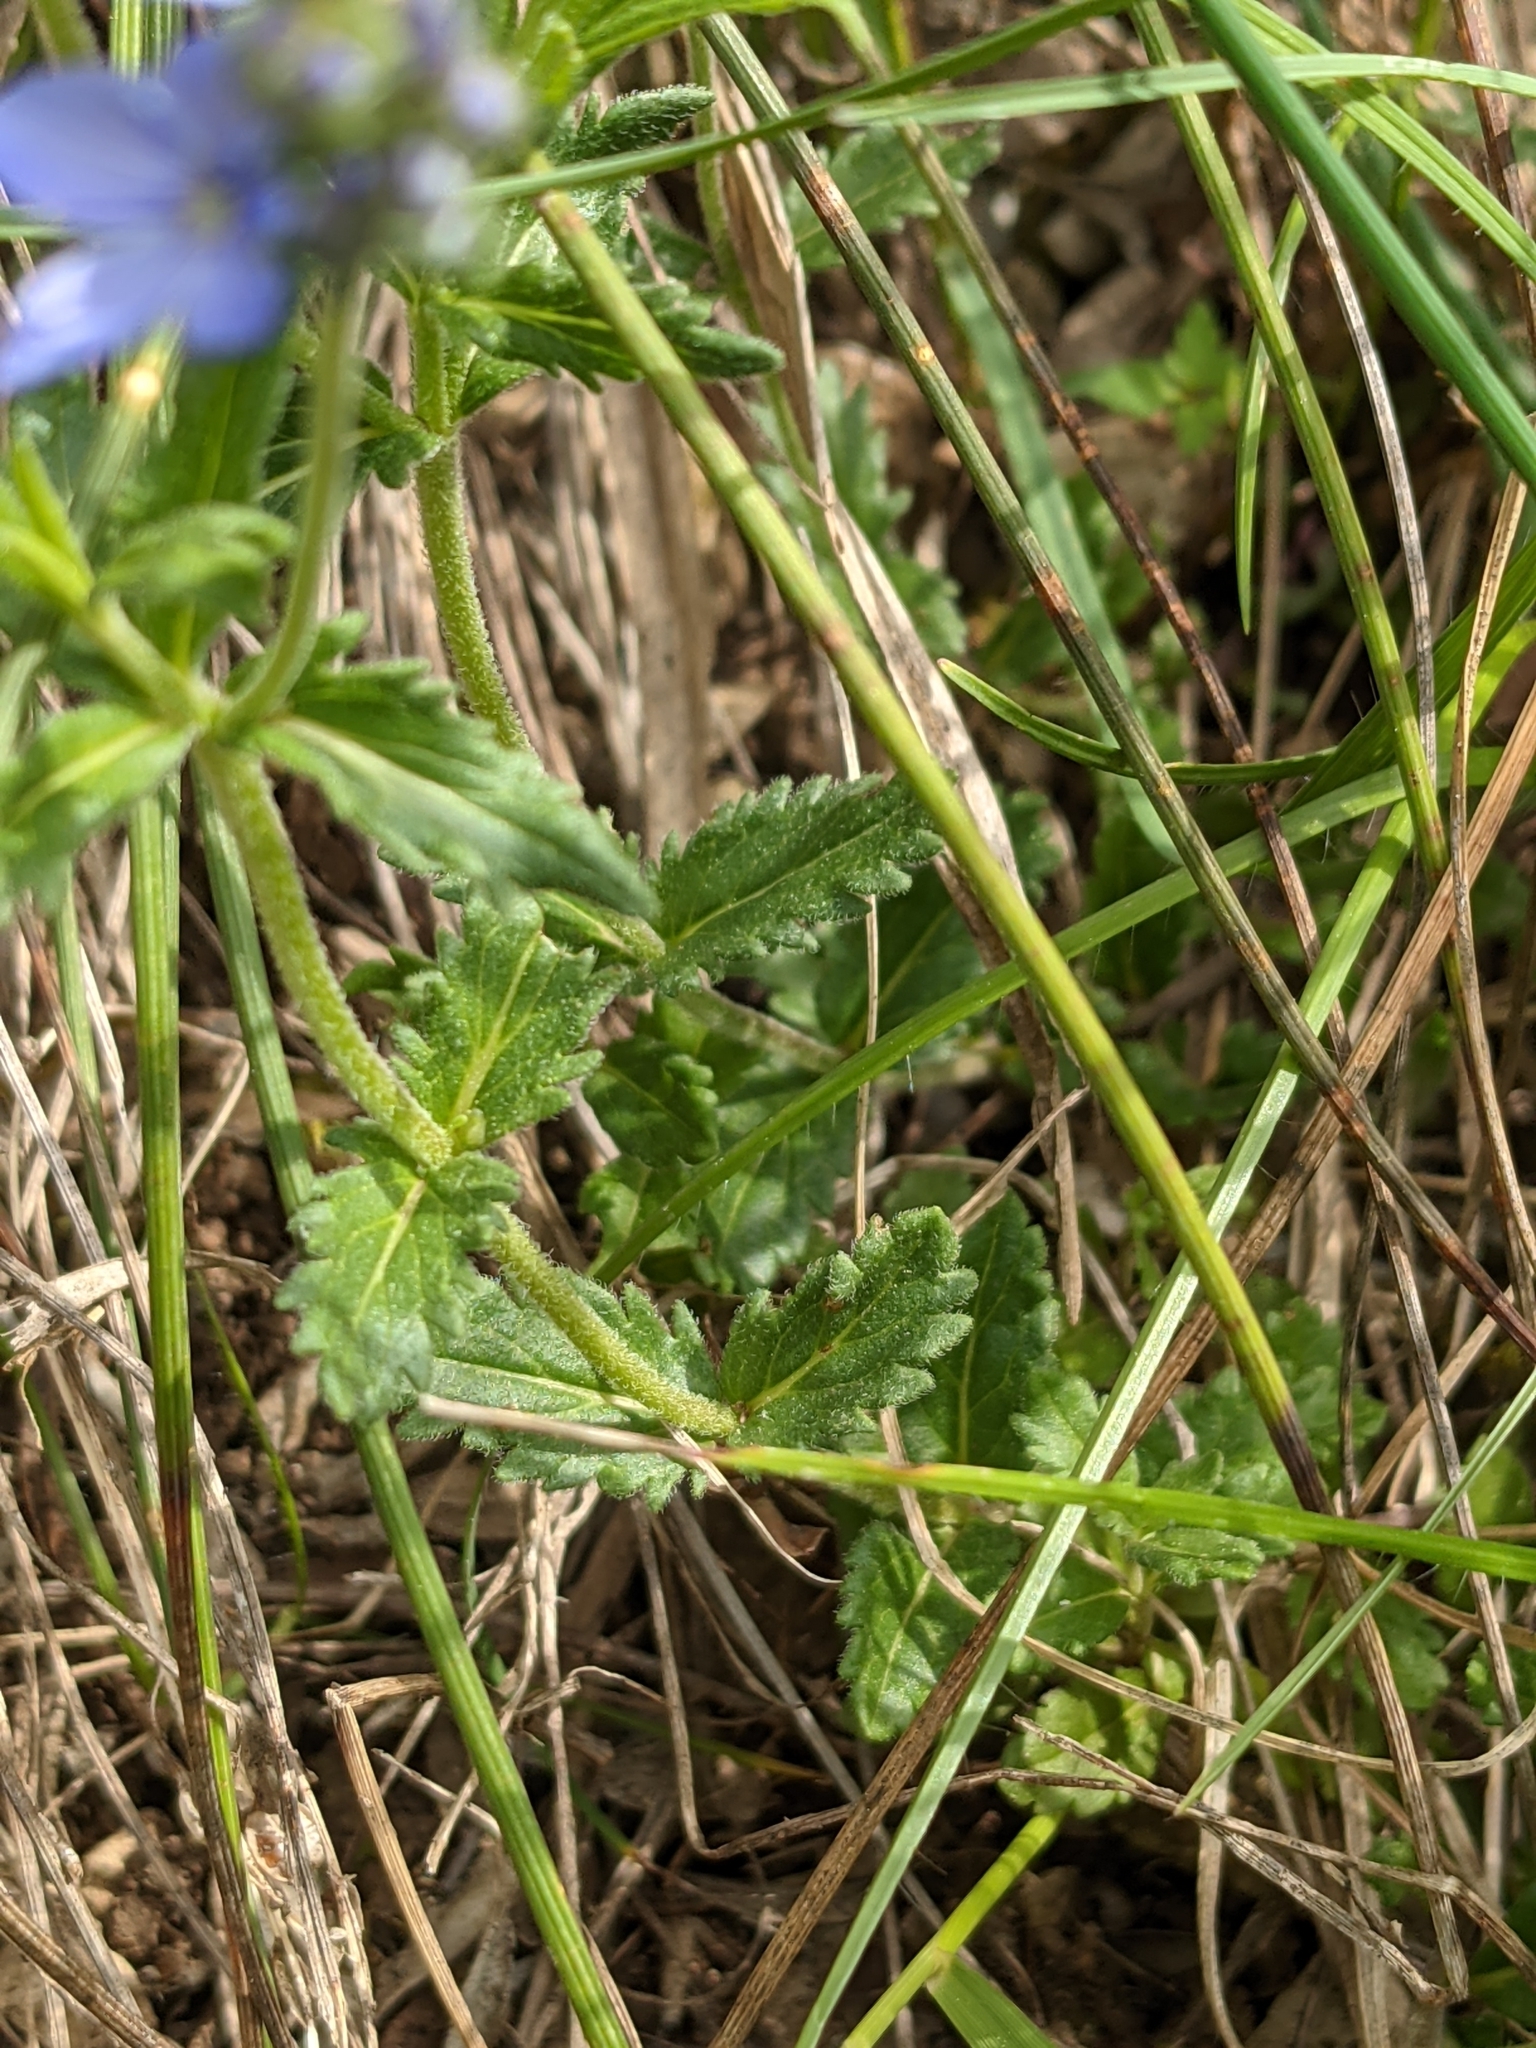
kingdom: Plantae
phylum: Tracheophyta
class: Magnoliopsida
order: Lamiales
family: Plantaginaceae
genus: Veronica
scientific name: Veronica orsiniana
